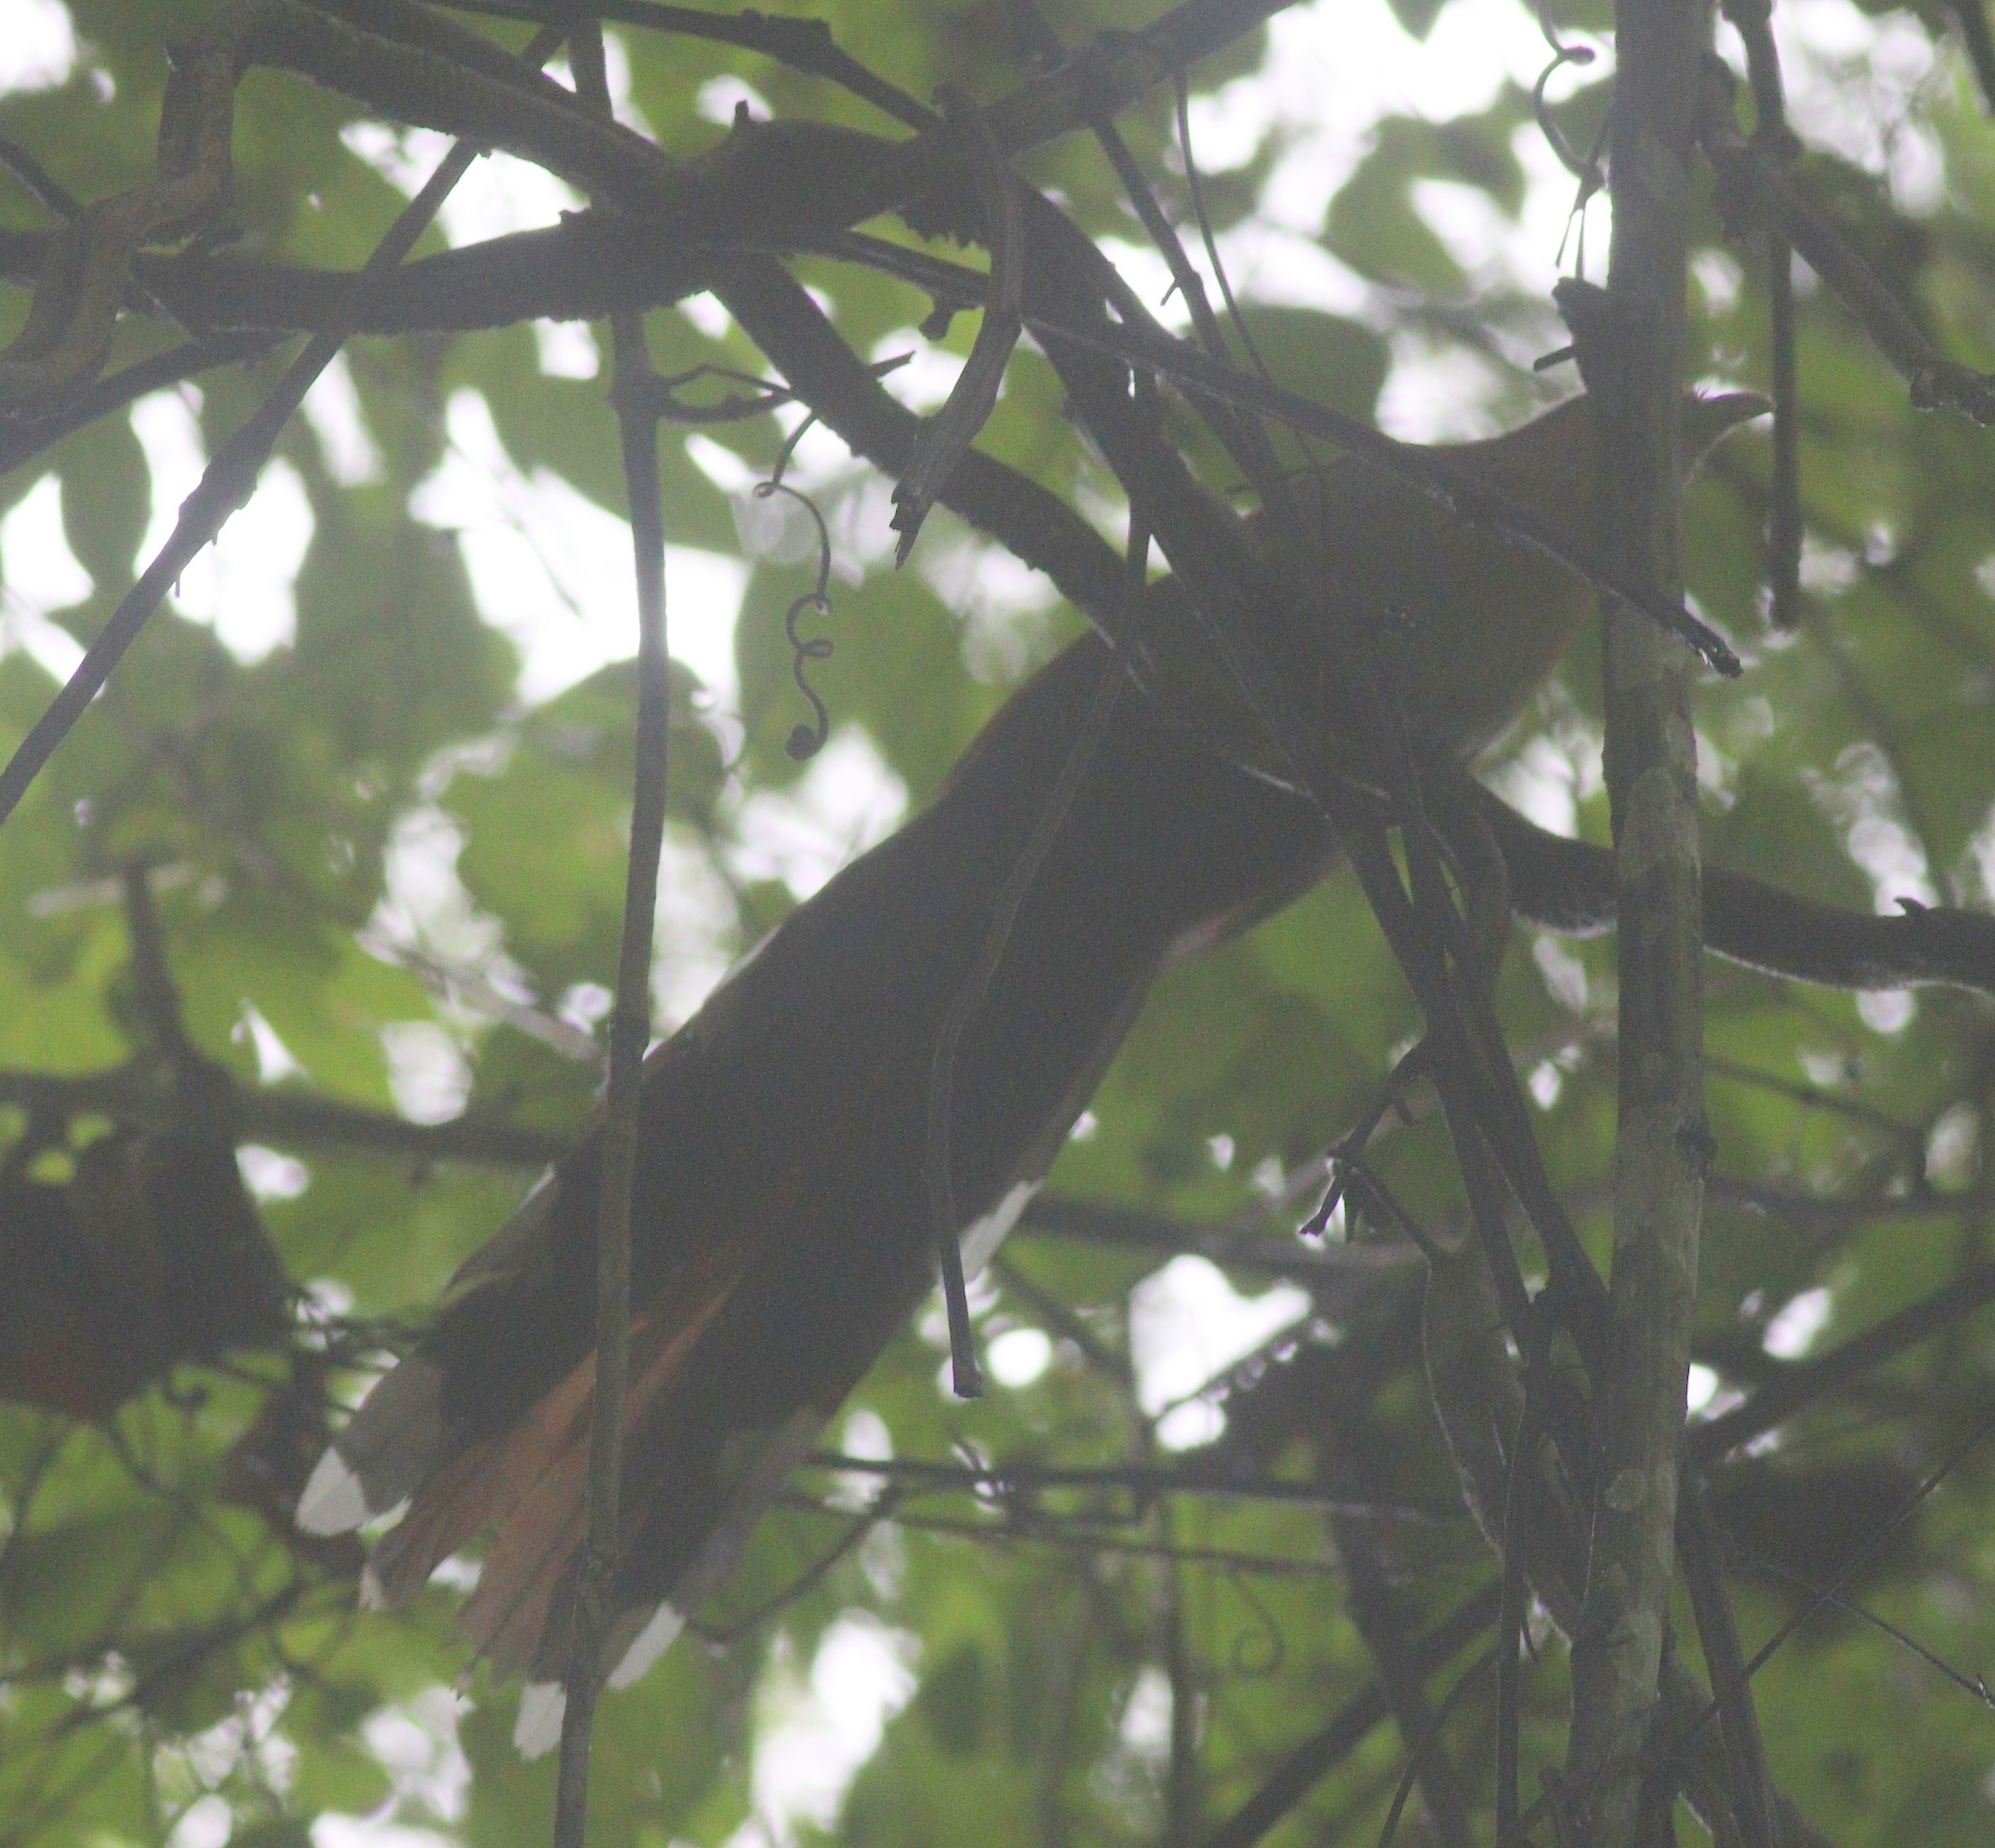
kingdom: Animalia
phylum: Chordata
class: Aves
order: Cuculiformes
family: Cuculidae
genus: Piaya
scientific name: Piaya cayana
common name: Squirrel cuckoo
